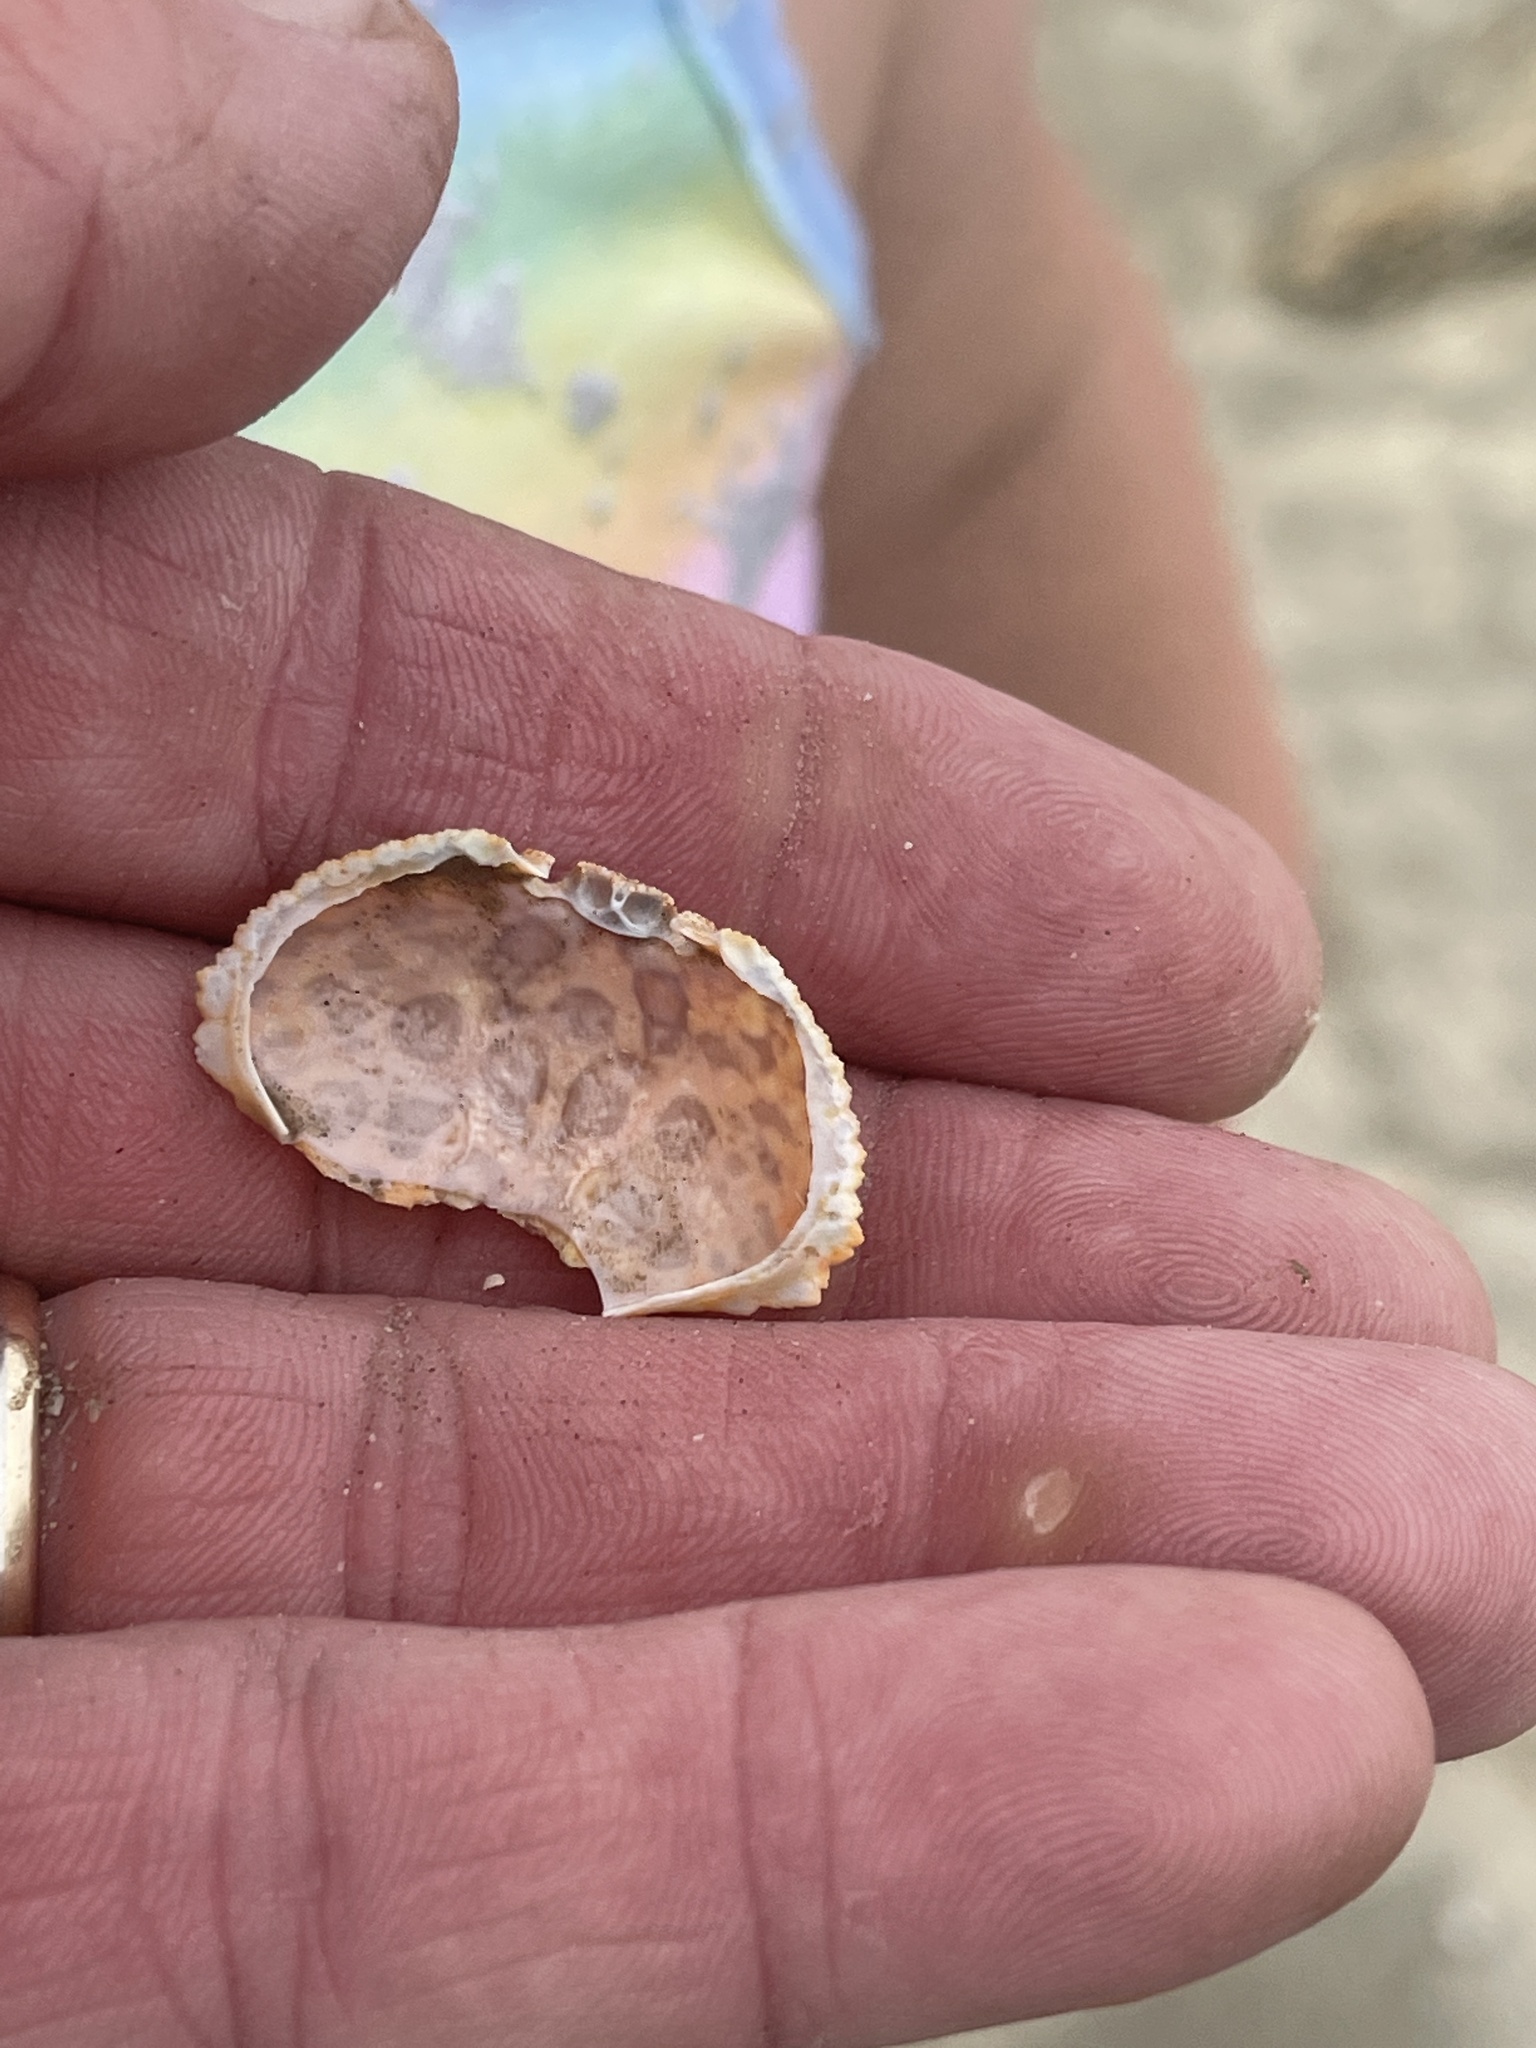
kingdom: Animalia
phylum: Arthropoda
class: Malacostraca
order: Decapoda
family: Aethridae
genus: Hepatus
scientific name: Hepatus epheliticus
